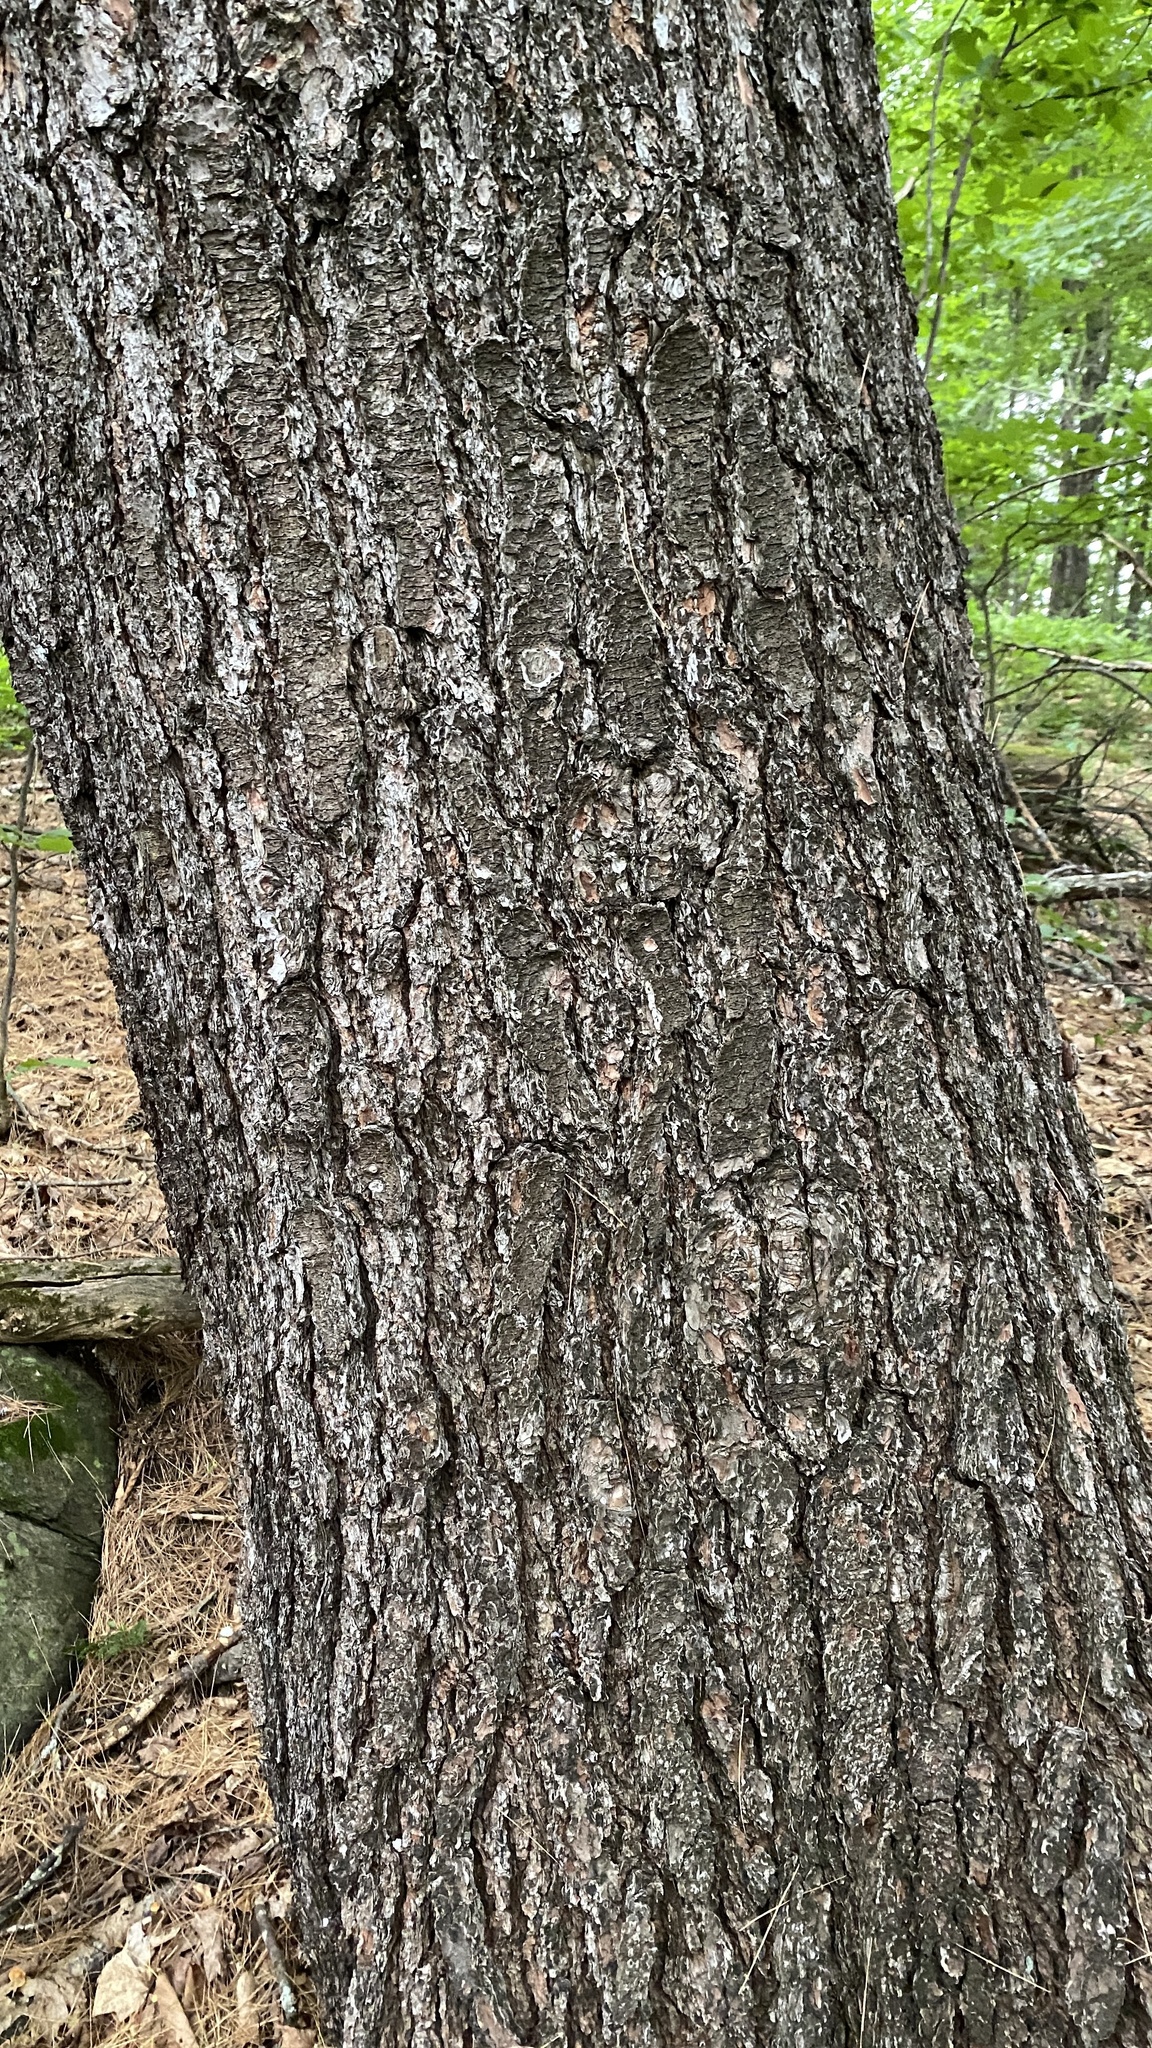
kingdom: Plantae
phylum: Tracheophyta
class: Pinopsida
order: Pinales
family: Pinaceae
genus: Pinus
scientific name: Pinus strobus
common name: Weymouth pine
